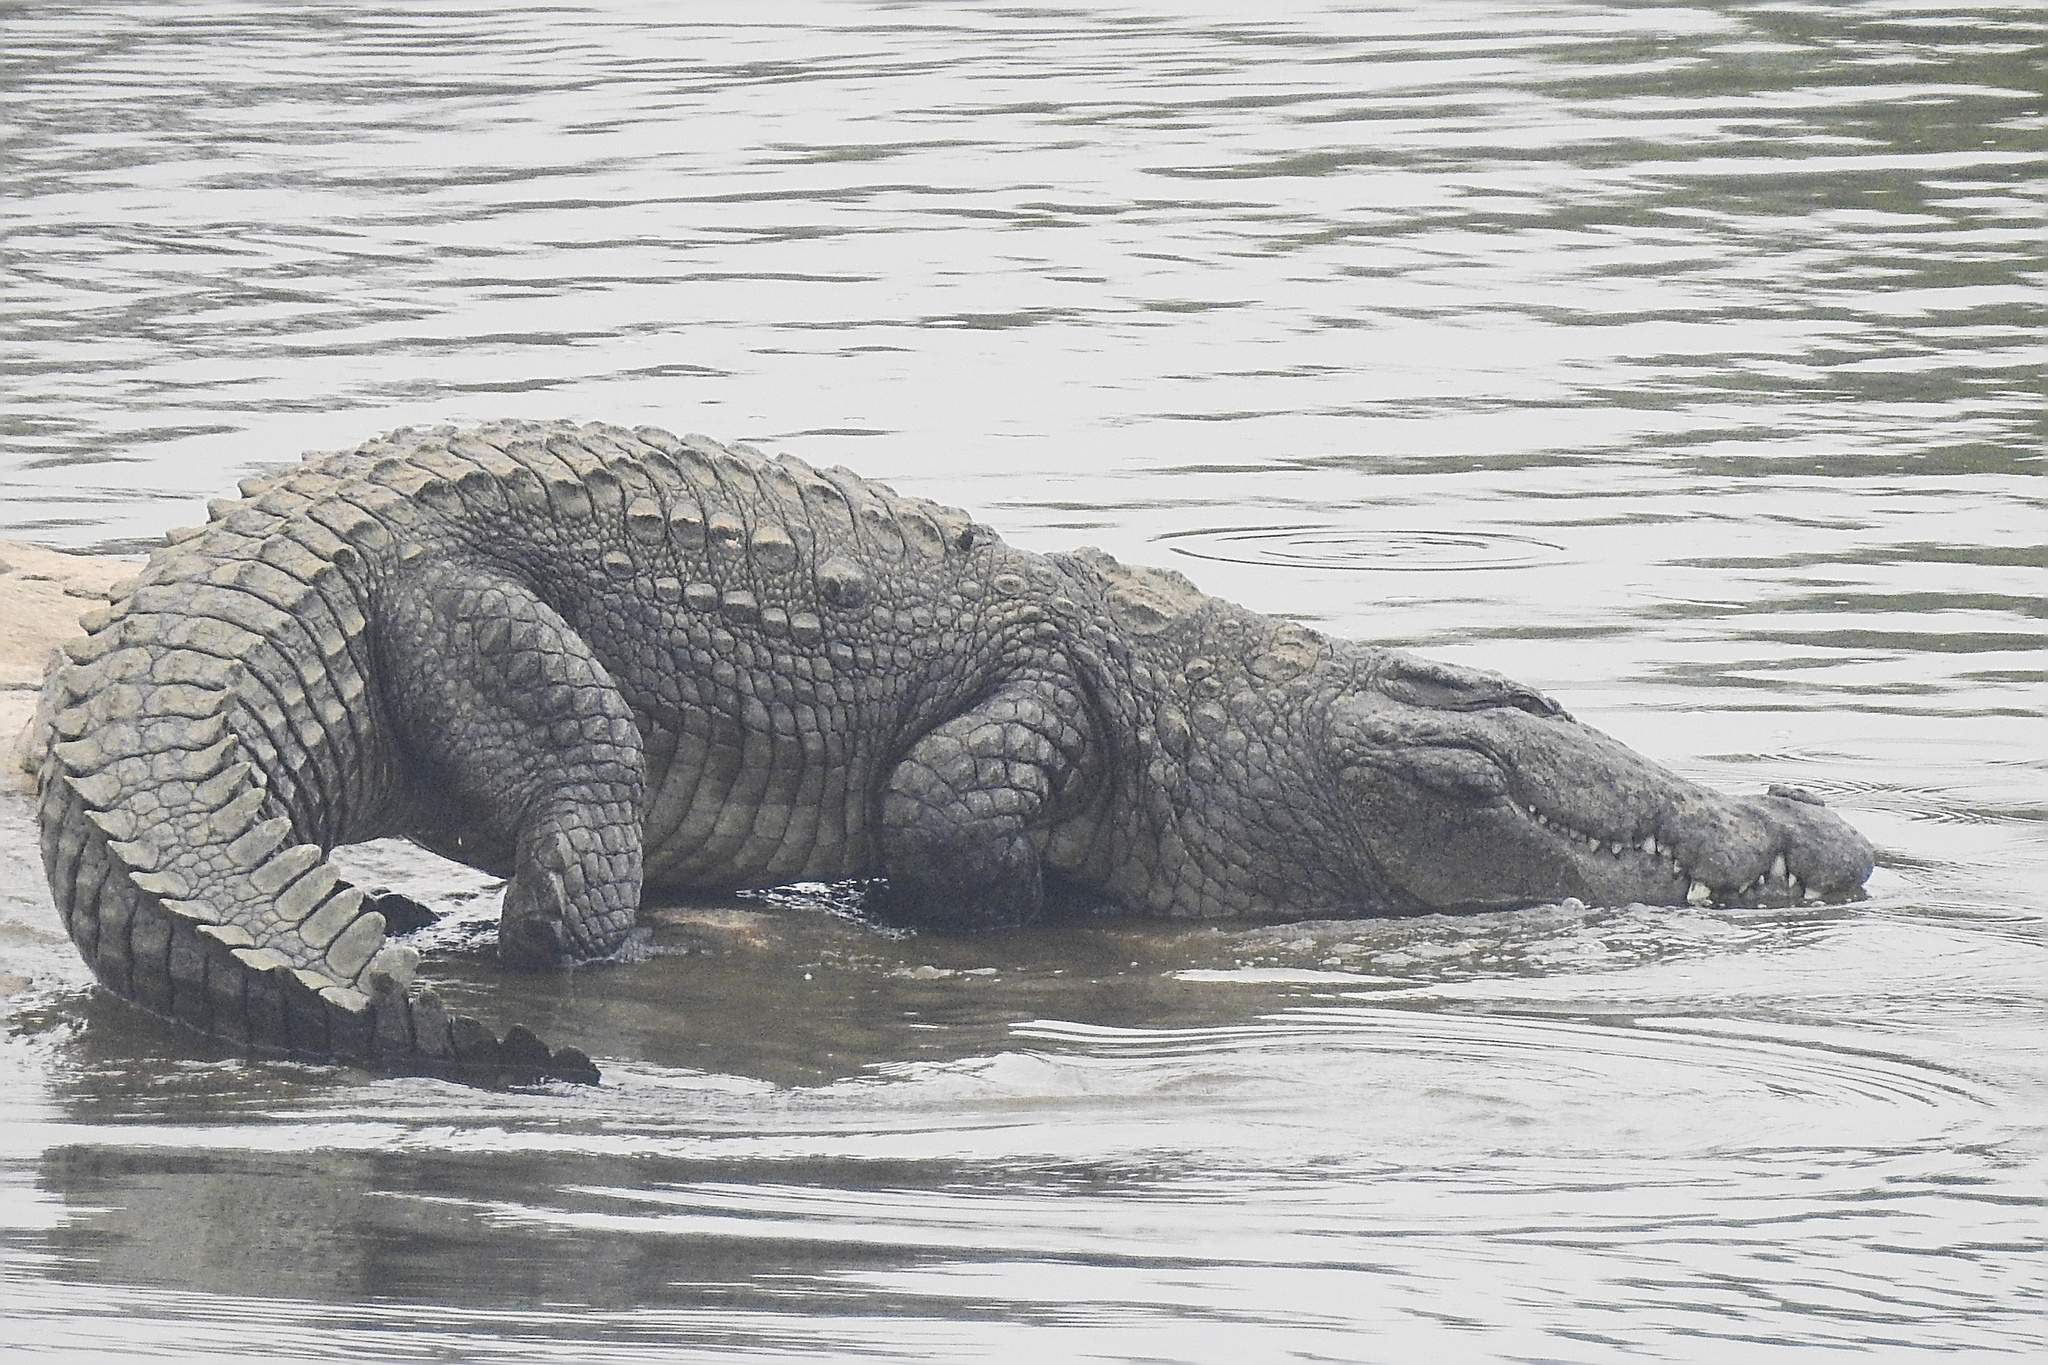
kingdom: Animalia
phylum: Chordata
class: Crocodylia
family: Crocodylidae
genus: Crocodylus
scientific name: Crocodylus palustris
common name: Mugger crocodile
